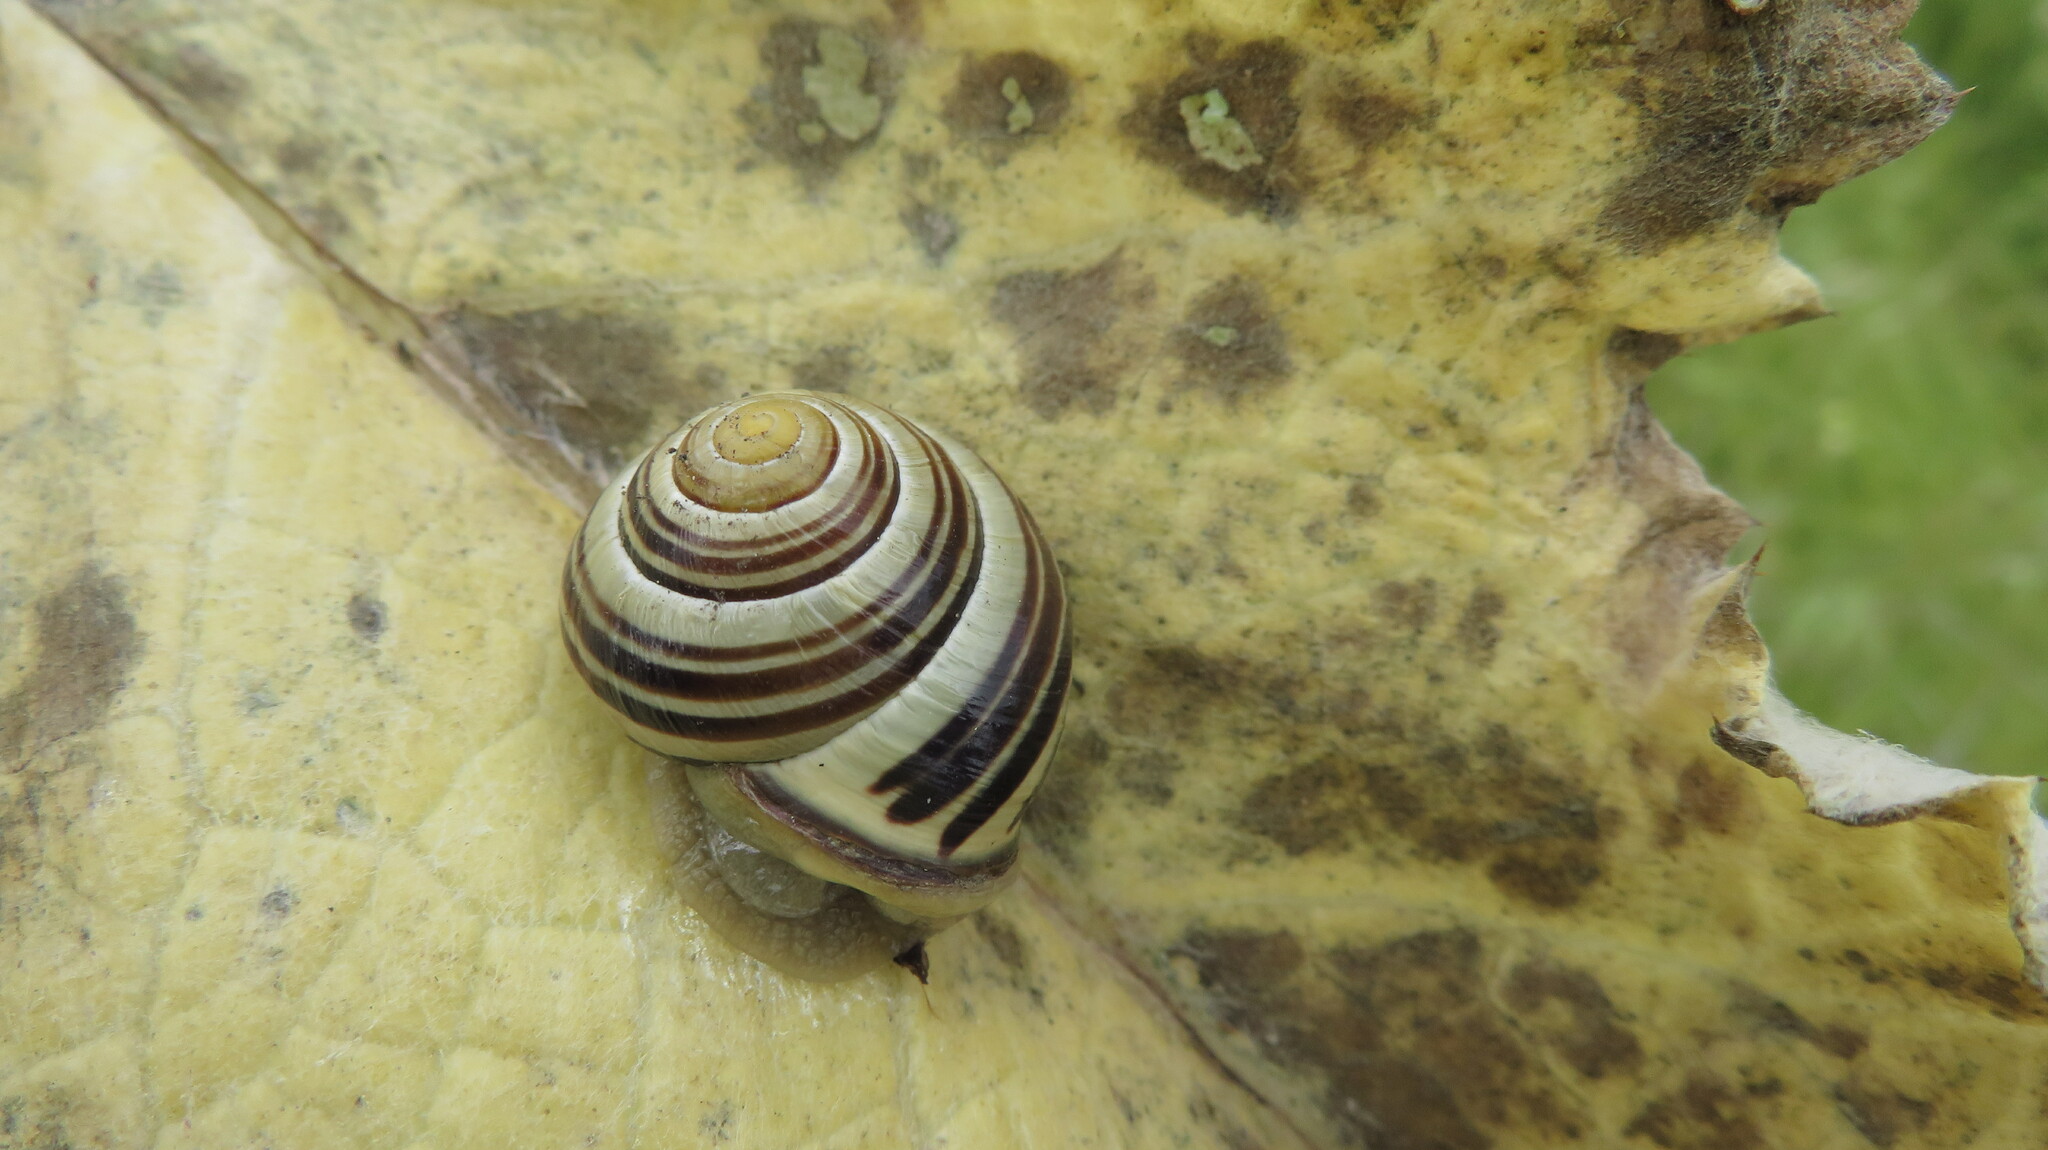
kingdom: Animalia
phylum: Mollusca
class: Gastropoda
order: Stylommatophora
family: Helicidae
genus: Cepaea
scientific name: Cepaea nemoralis
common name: Grovesnail
